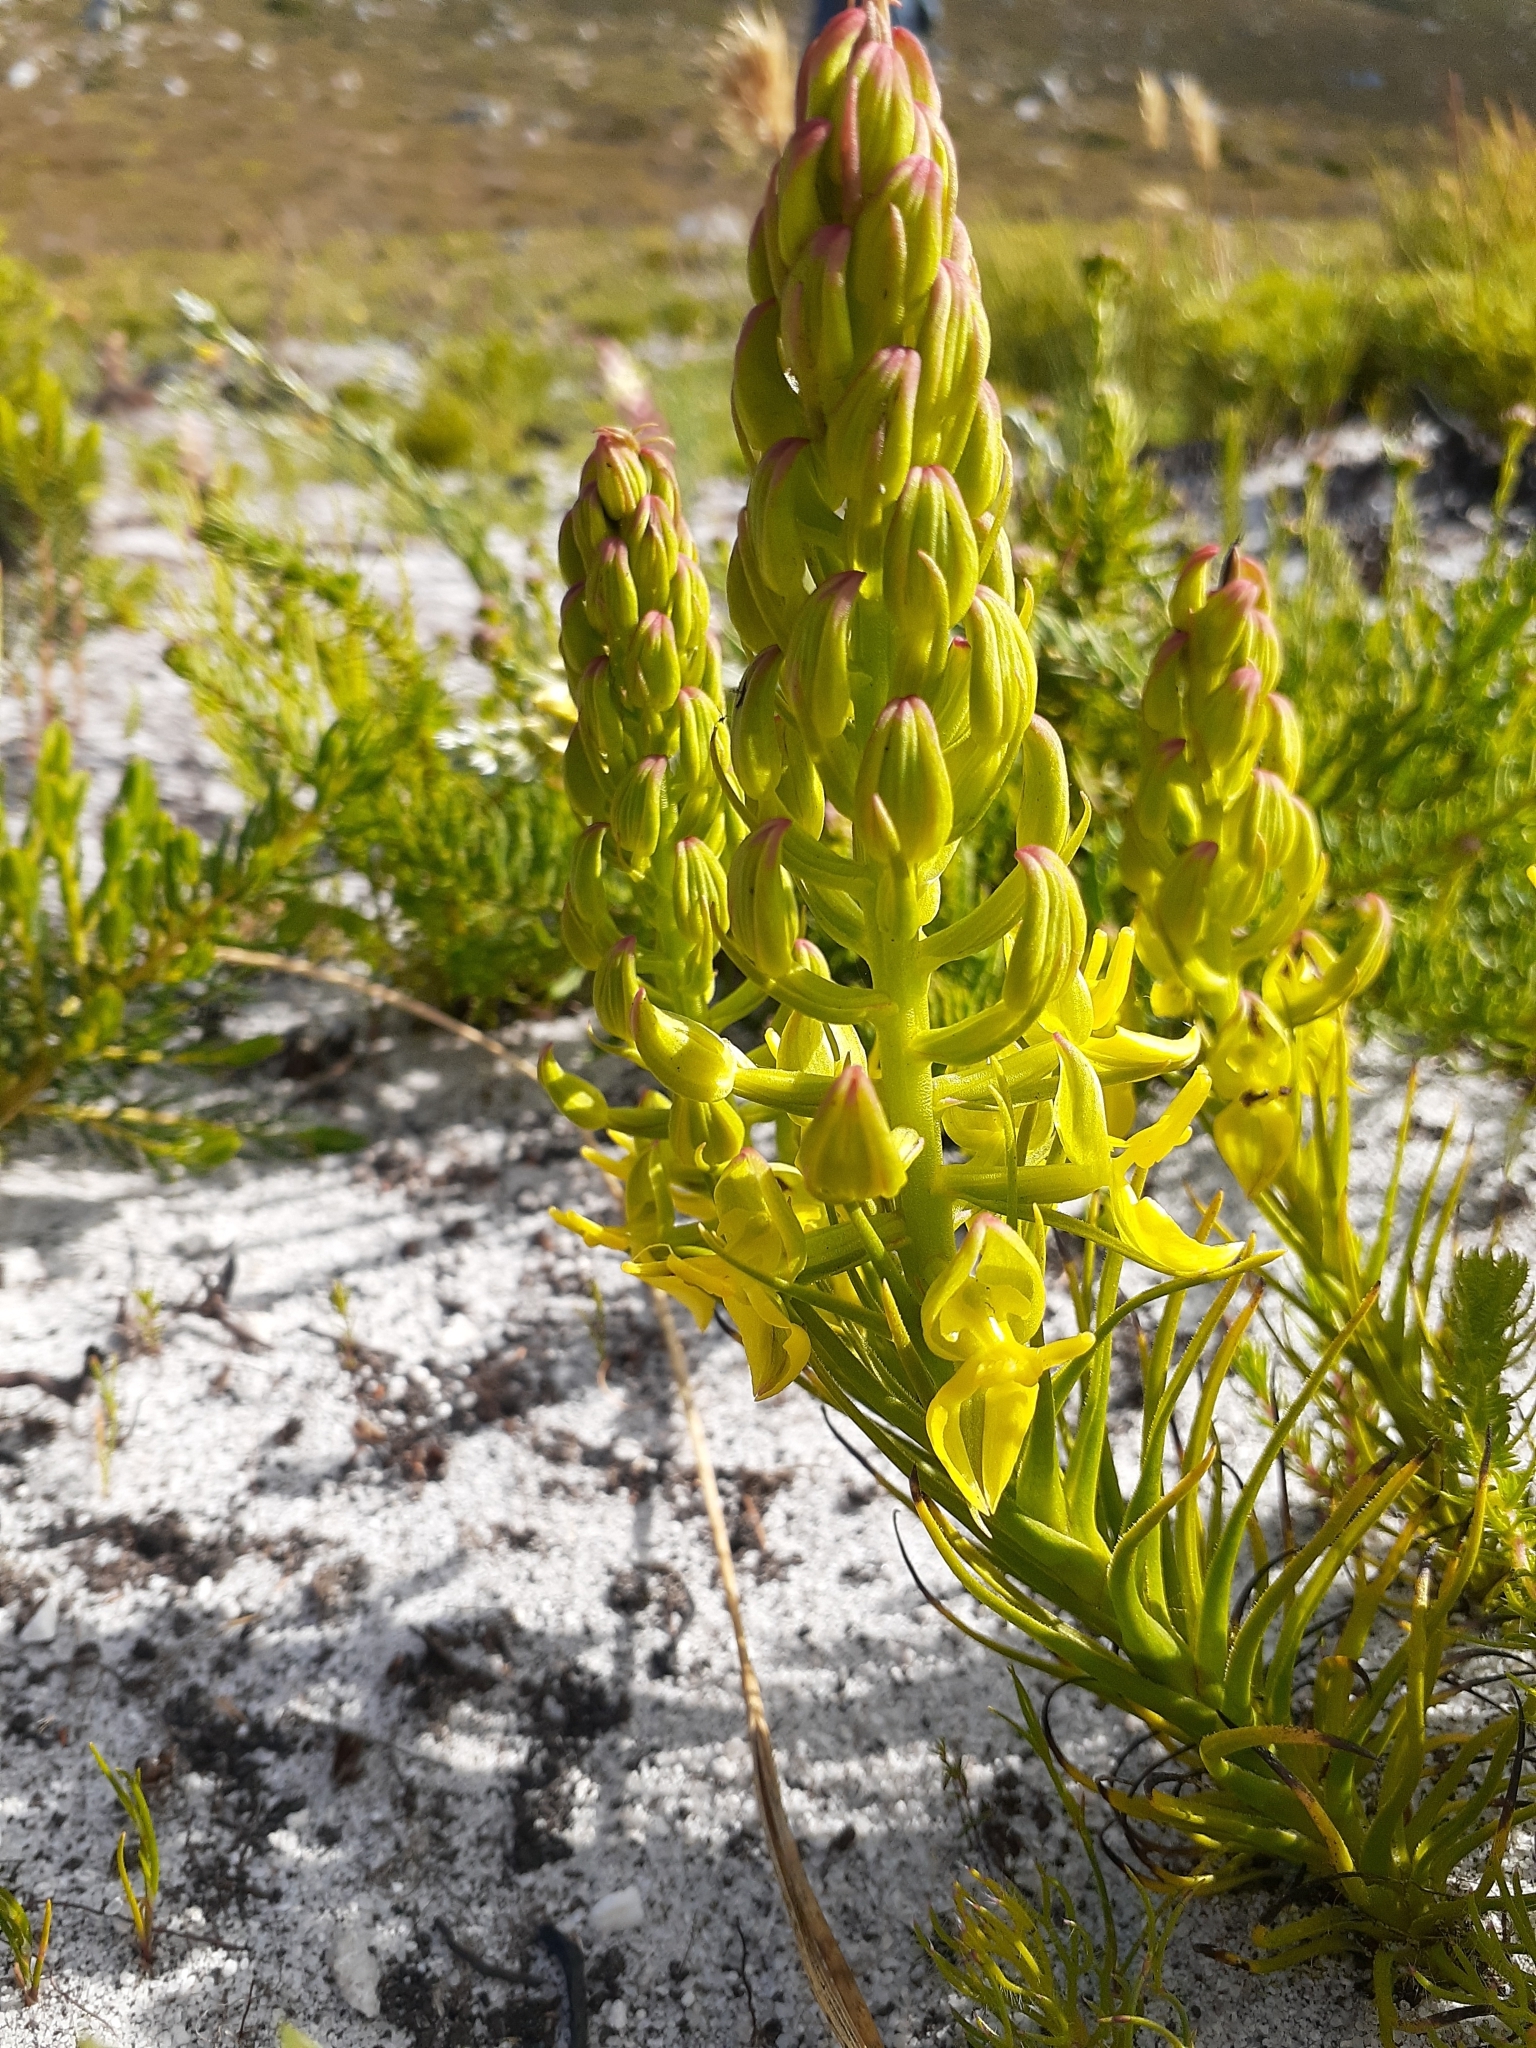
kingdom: Plantae
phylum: Tracheophyta
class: Liliopsida
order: Asparagales
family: Orchidaceae
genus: Ceratandra
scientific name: Ceratandra atrata
